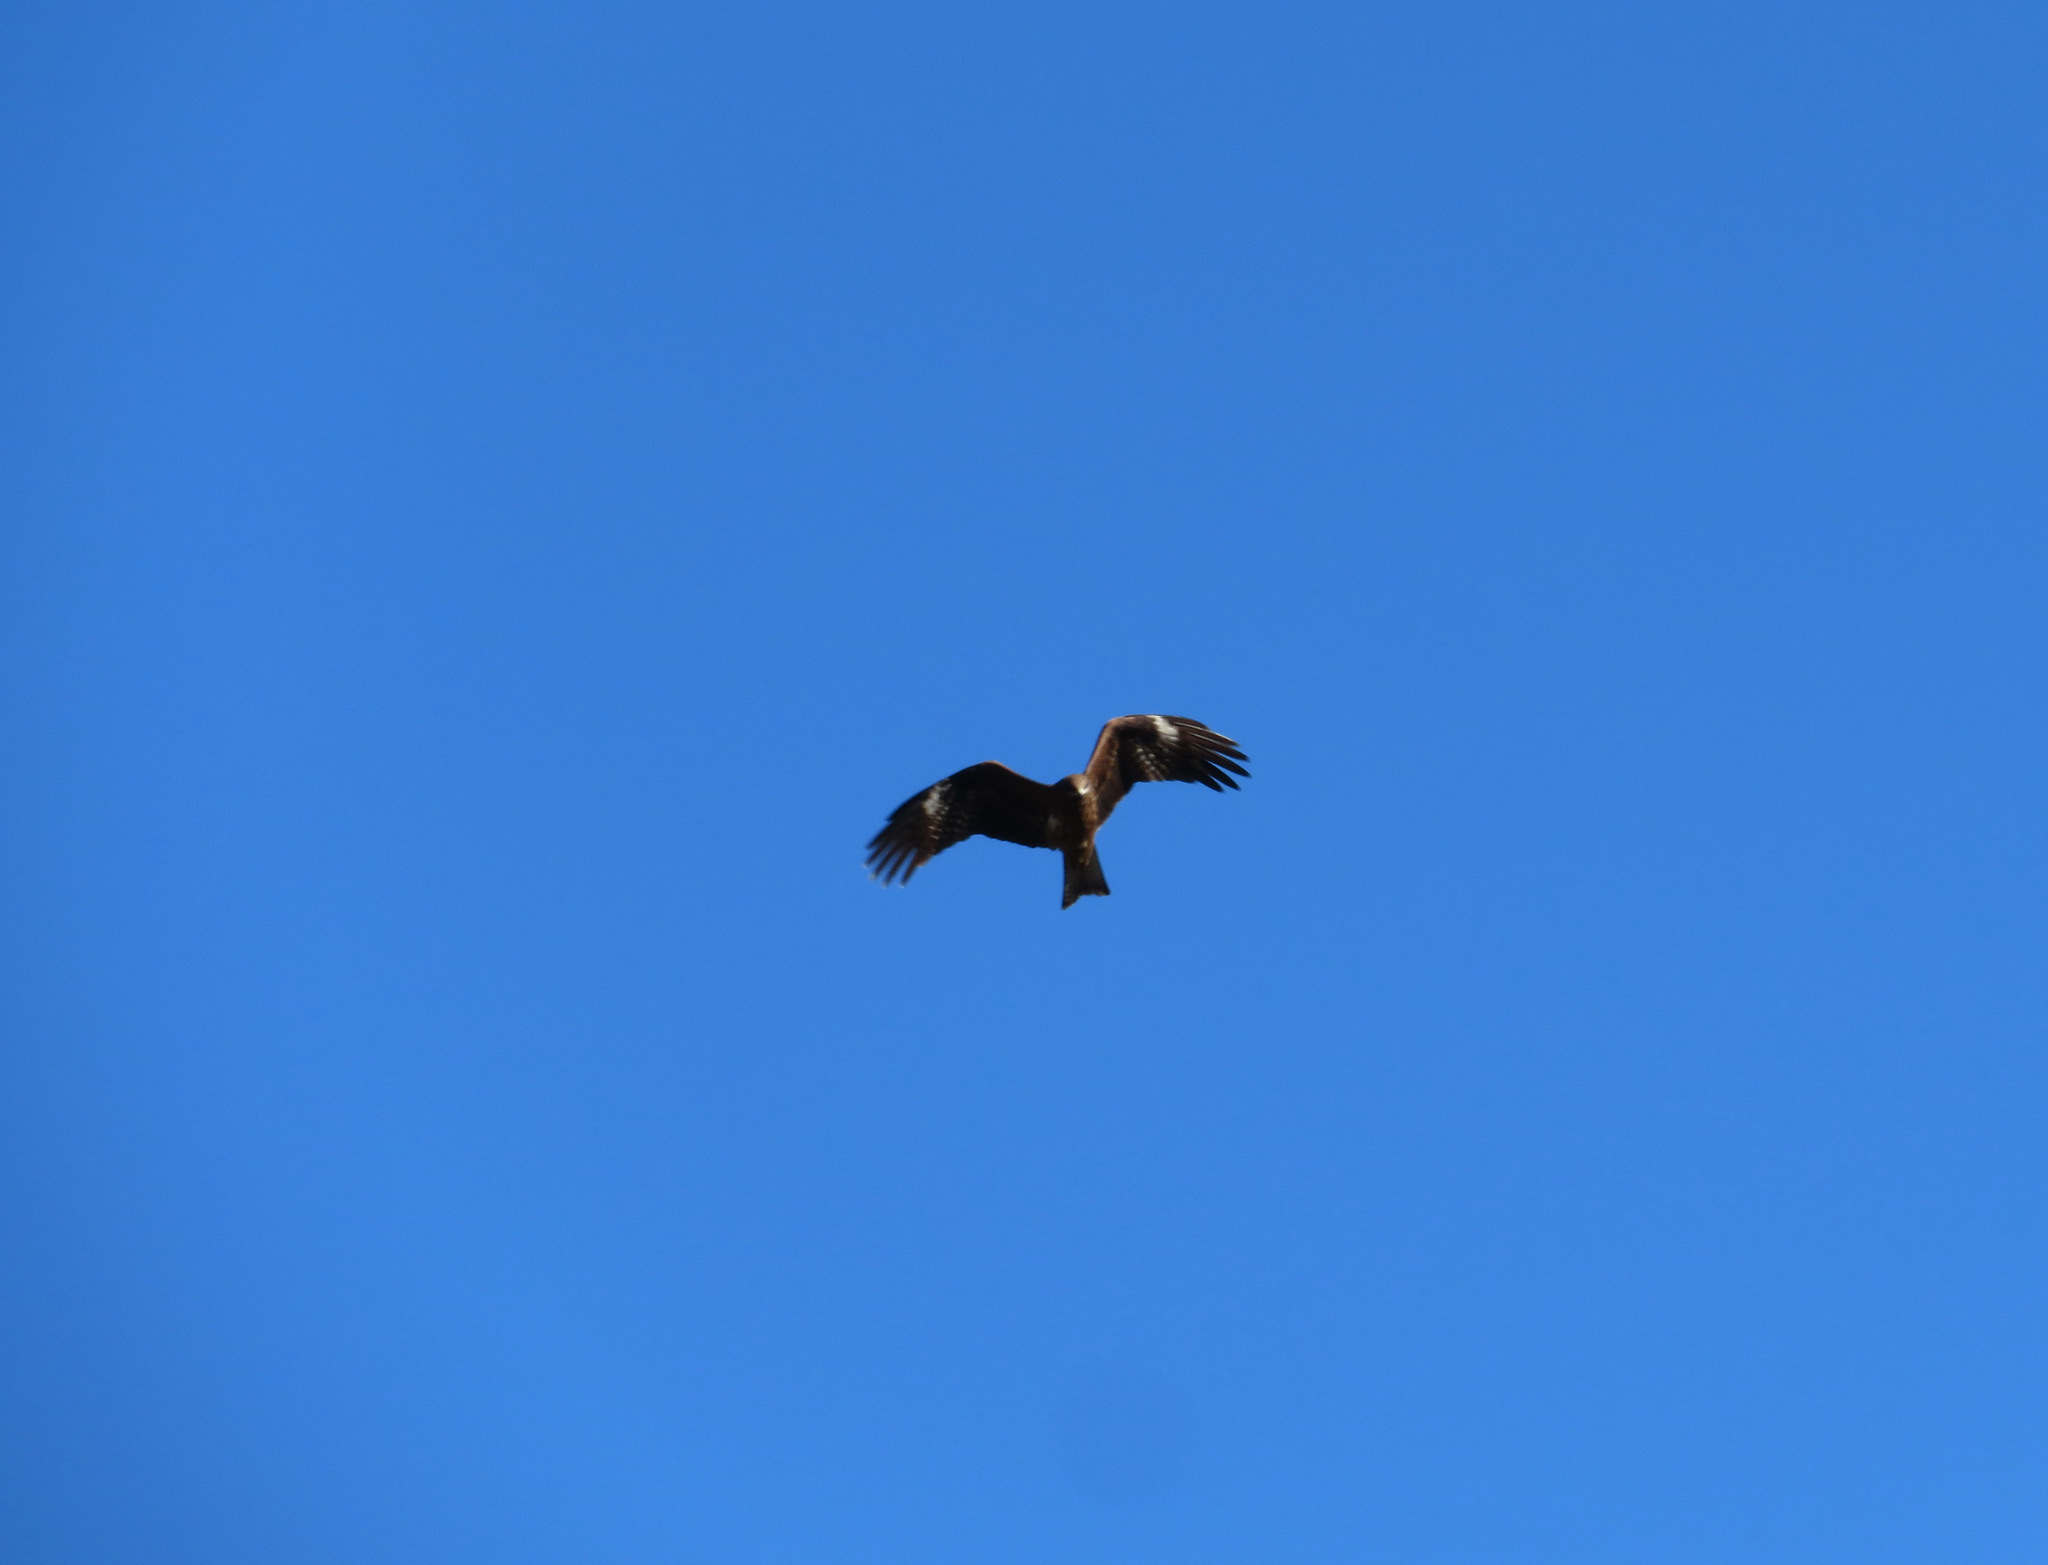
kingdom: Animalia
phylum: Chordata
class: Aves
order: Accipitriformes
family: Accipitridae
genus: Milvus
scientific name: Milvus migrans
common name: Black kite
